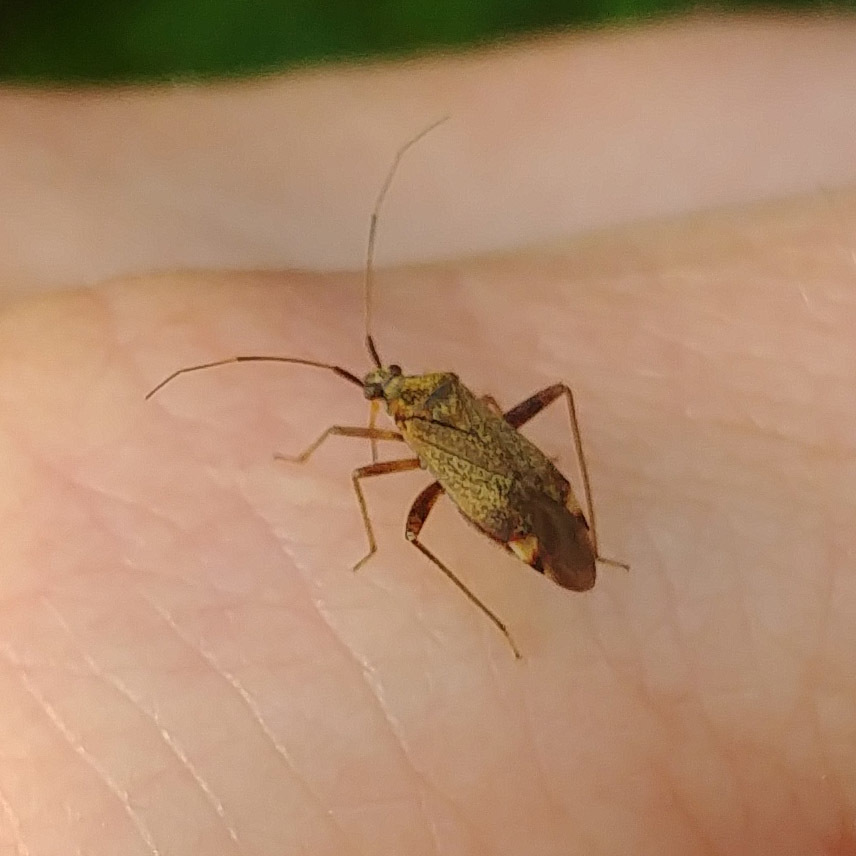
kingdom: Animalia
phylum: Arthropoda
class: Insecta
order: Hemiptera
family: Miridae
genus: Closterotomus
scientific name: Closterotomus fulvomaculatus
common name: Spotted plant bug
